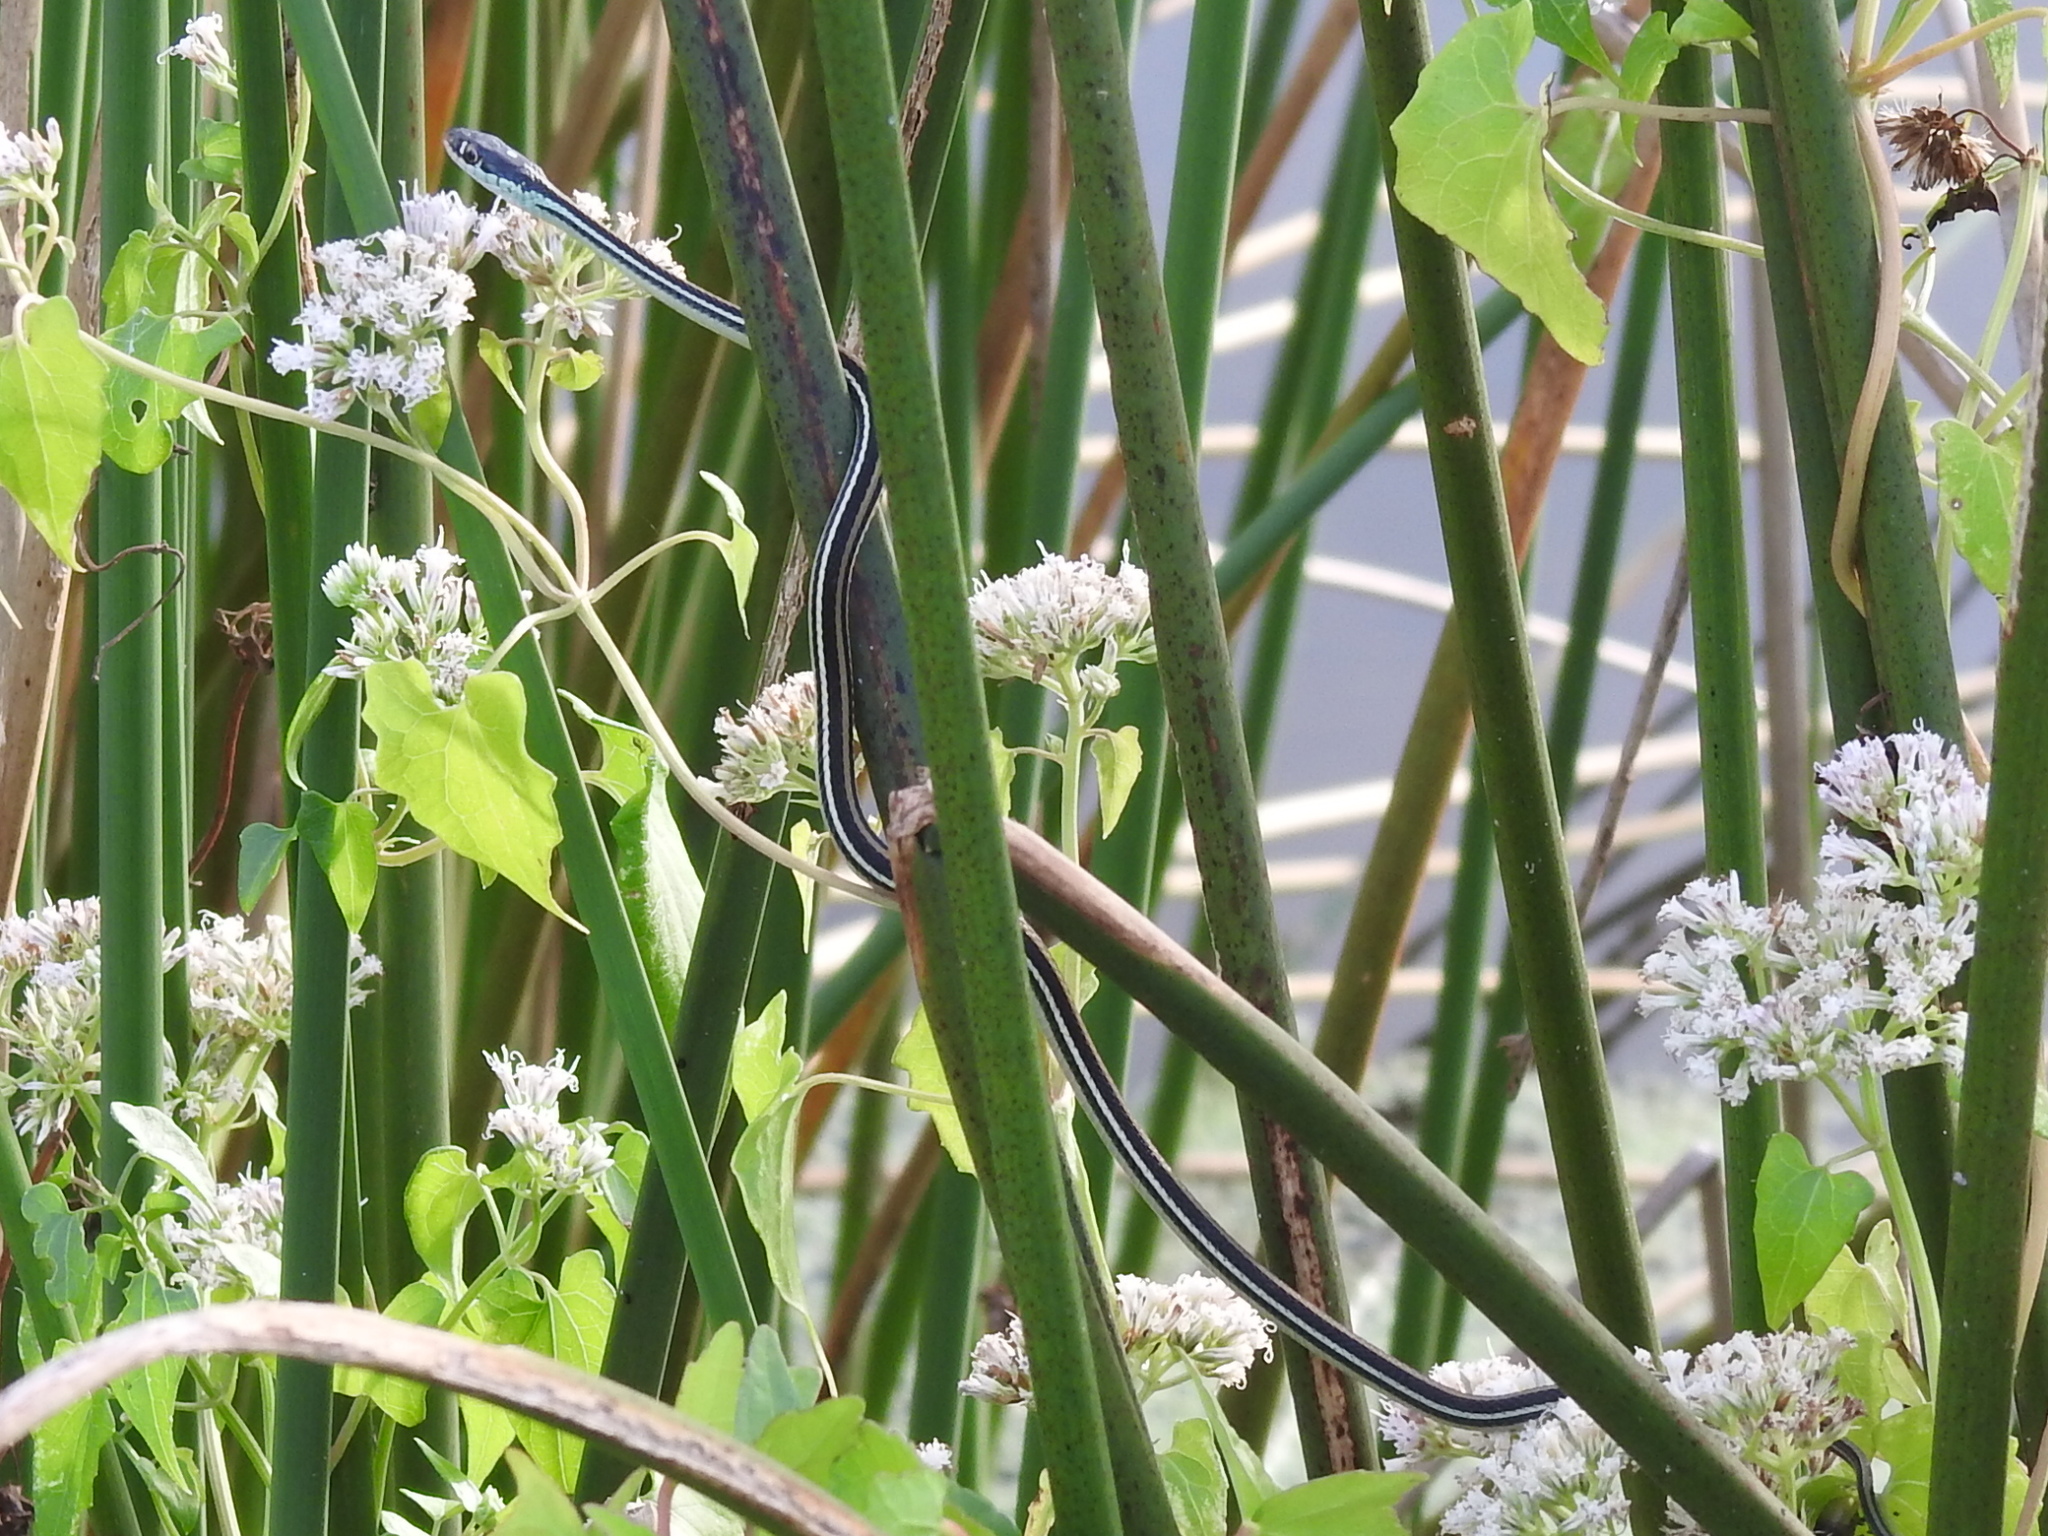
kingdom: Animalia
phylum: Chordata
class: Squamata
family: Colubridae
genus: Thamnophis
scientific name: Thamnophis proximus
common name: Western ribbon snake
